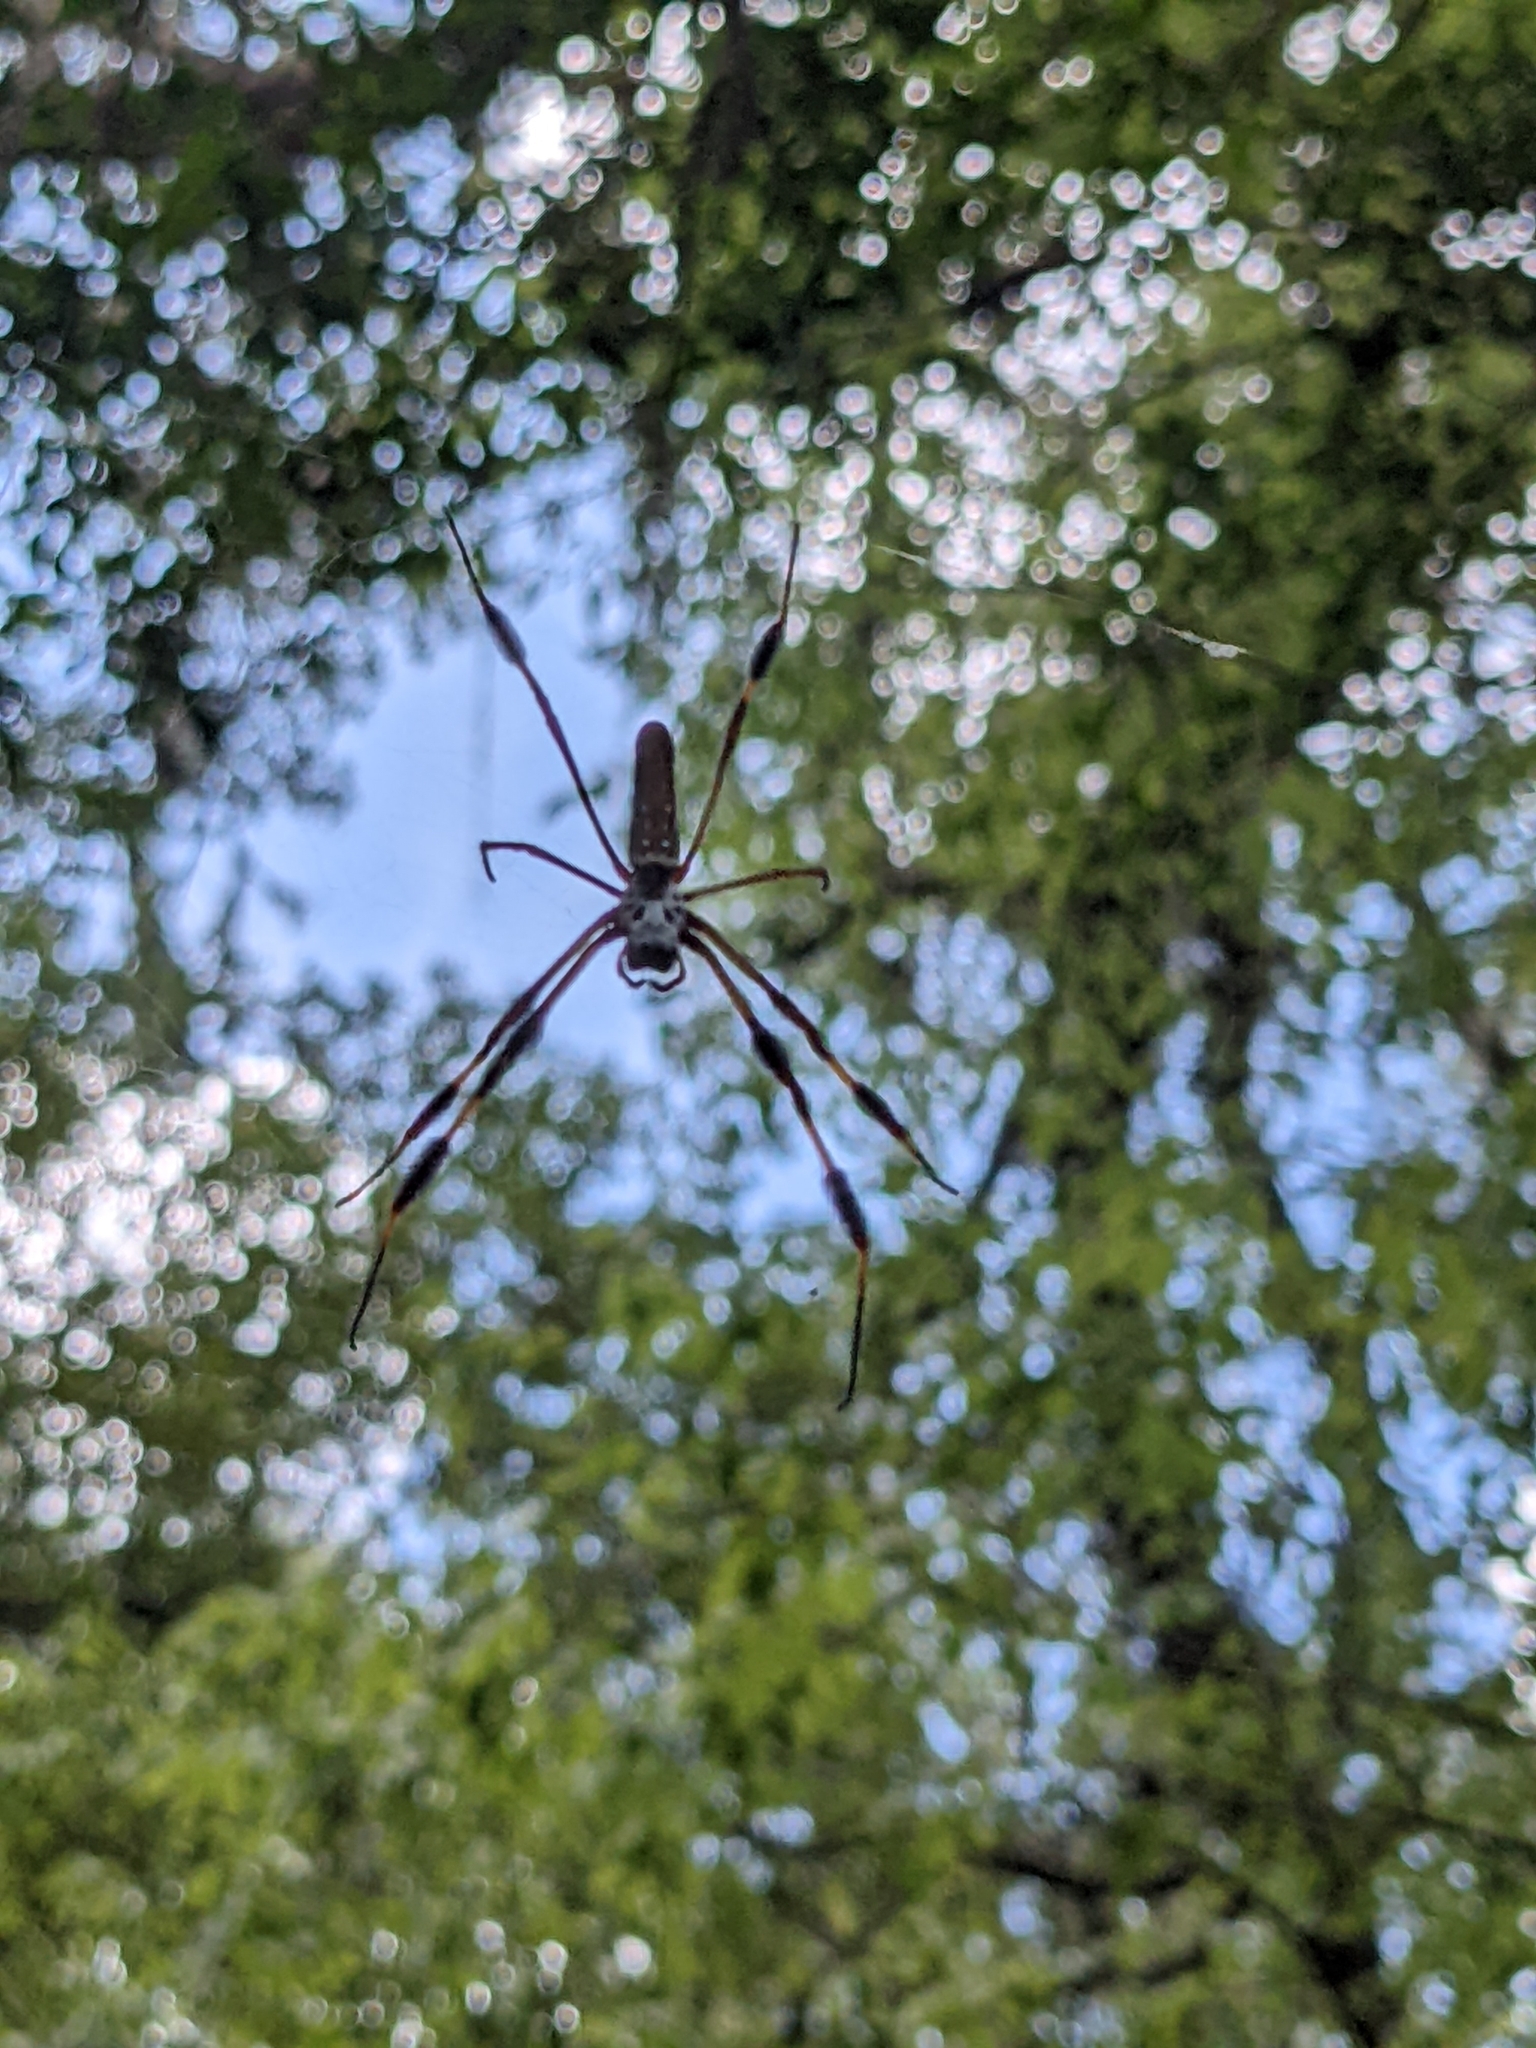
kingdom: Animalia
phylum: Arthropoda
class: Arachnida
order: Araneae
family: Araneidae
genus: Trichonephila
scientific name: Trichonephila clavipes
